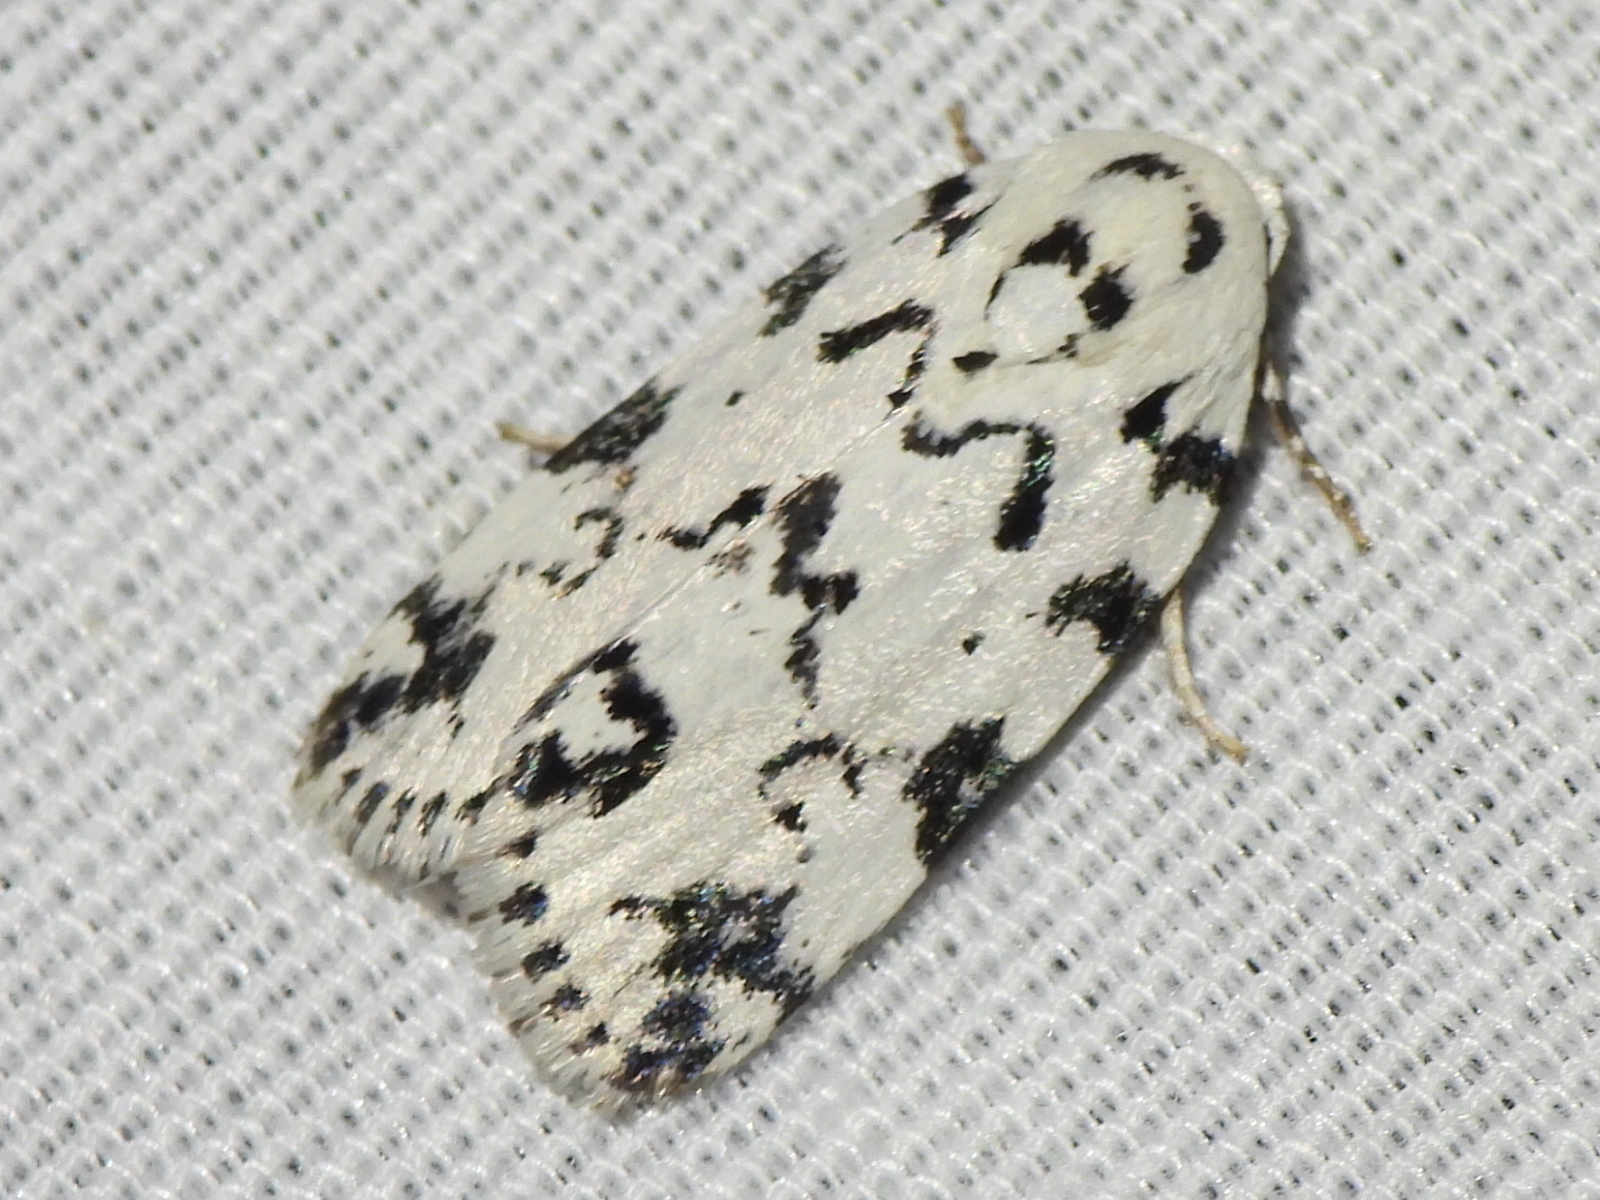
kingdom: Animalia
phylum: Arthropoda
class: Insecta
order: Lepidoptera
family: Noctuidae
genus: Polygrammate
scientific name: Polygrammate hebraeicum
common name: Hebrew moth
